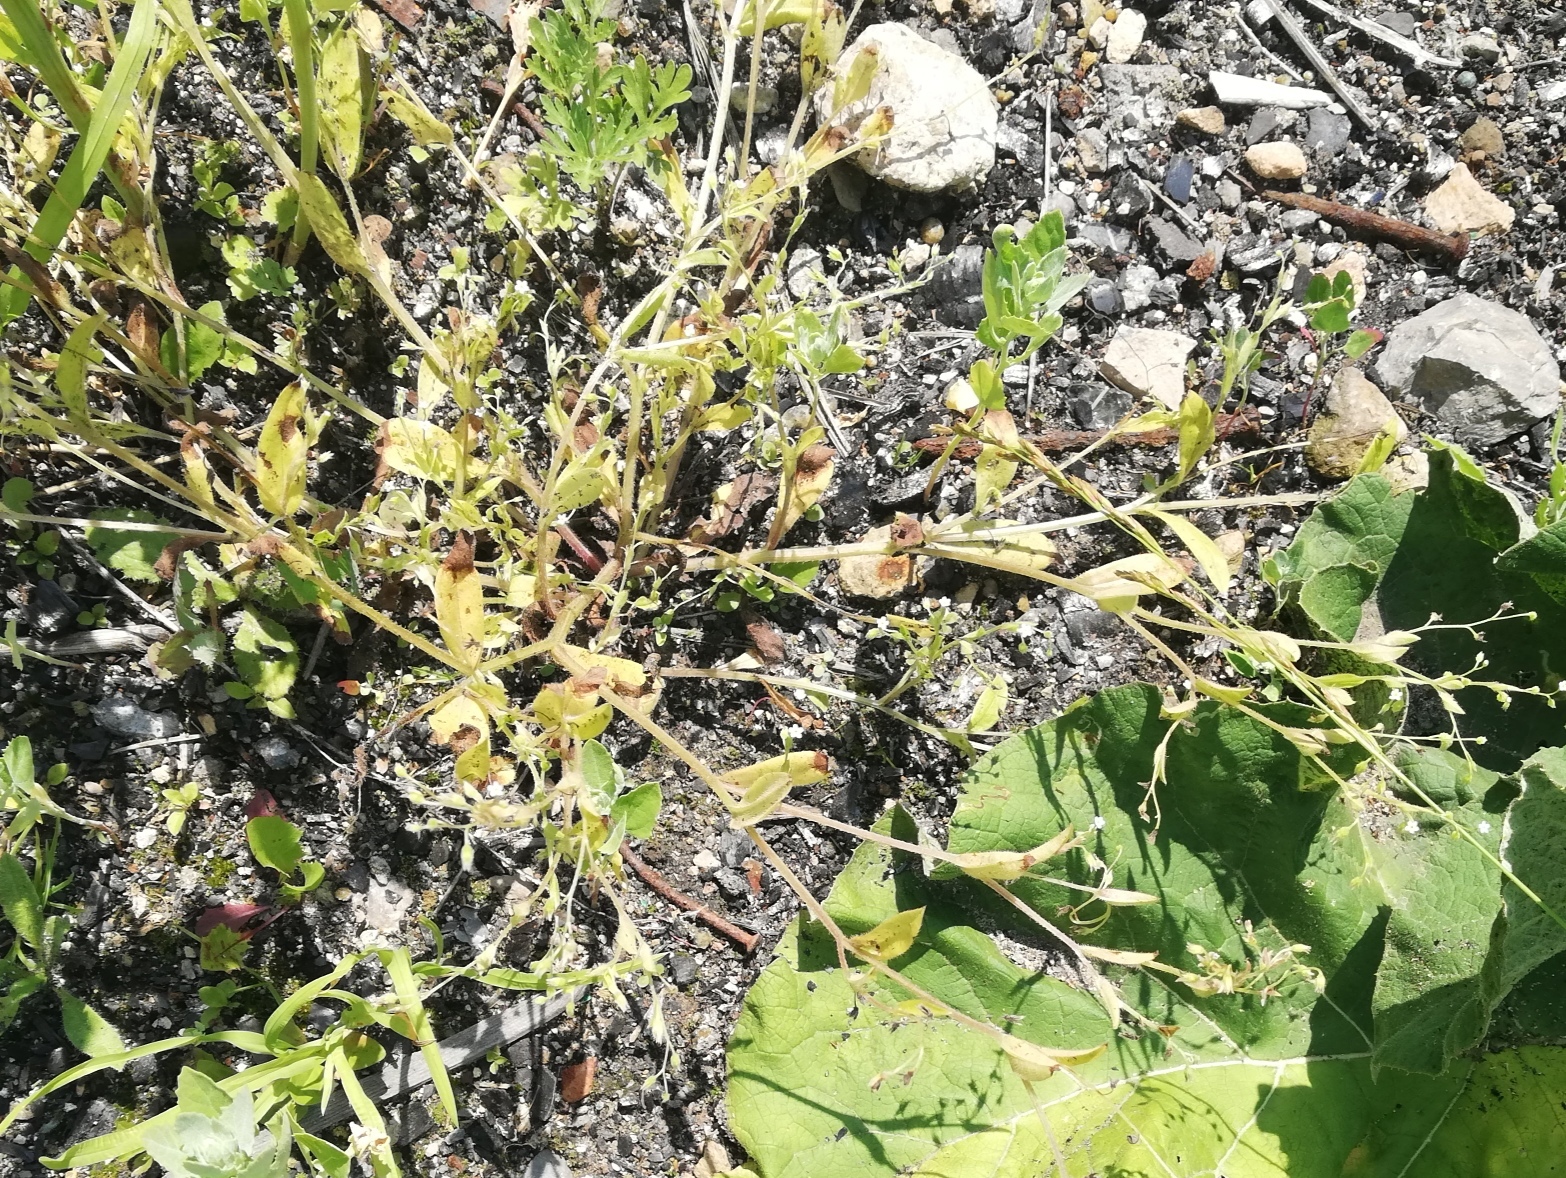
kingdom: Plantae
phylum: Tracheophyta
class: Magnoliopsida
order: Boraginales
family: Boraginaceae
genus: Myosotis
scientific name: Myosotis sparsiflora
